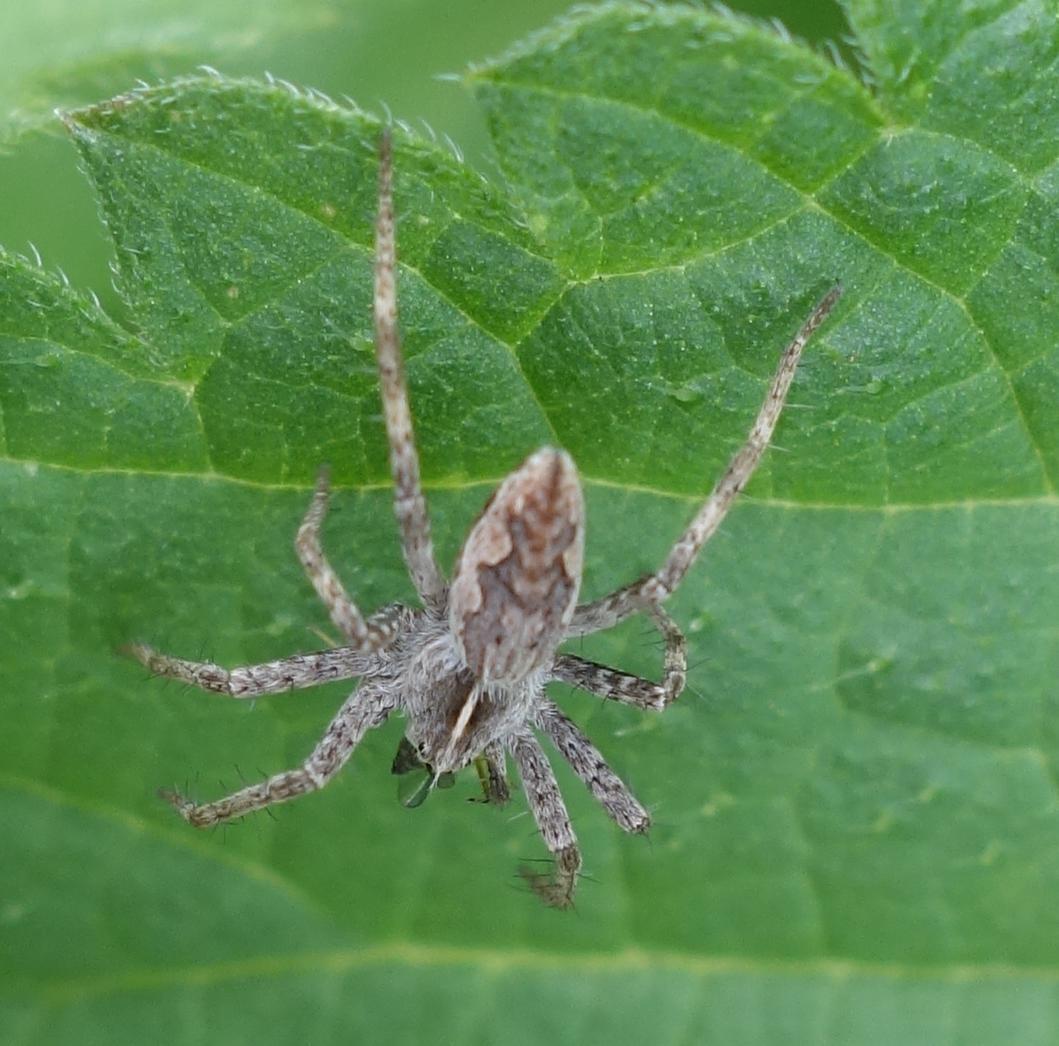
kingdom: Animalia
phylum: Arthropoda
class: Arachnida
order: Araneae
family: Pisauridae
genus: Pisaura
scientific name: Pisaura mirabilis
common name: Tent spider
